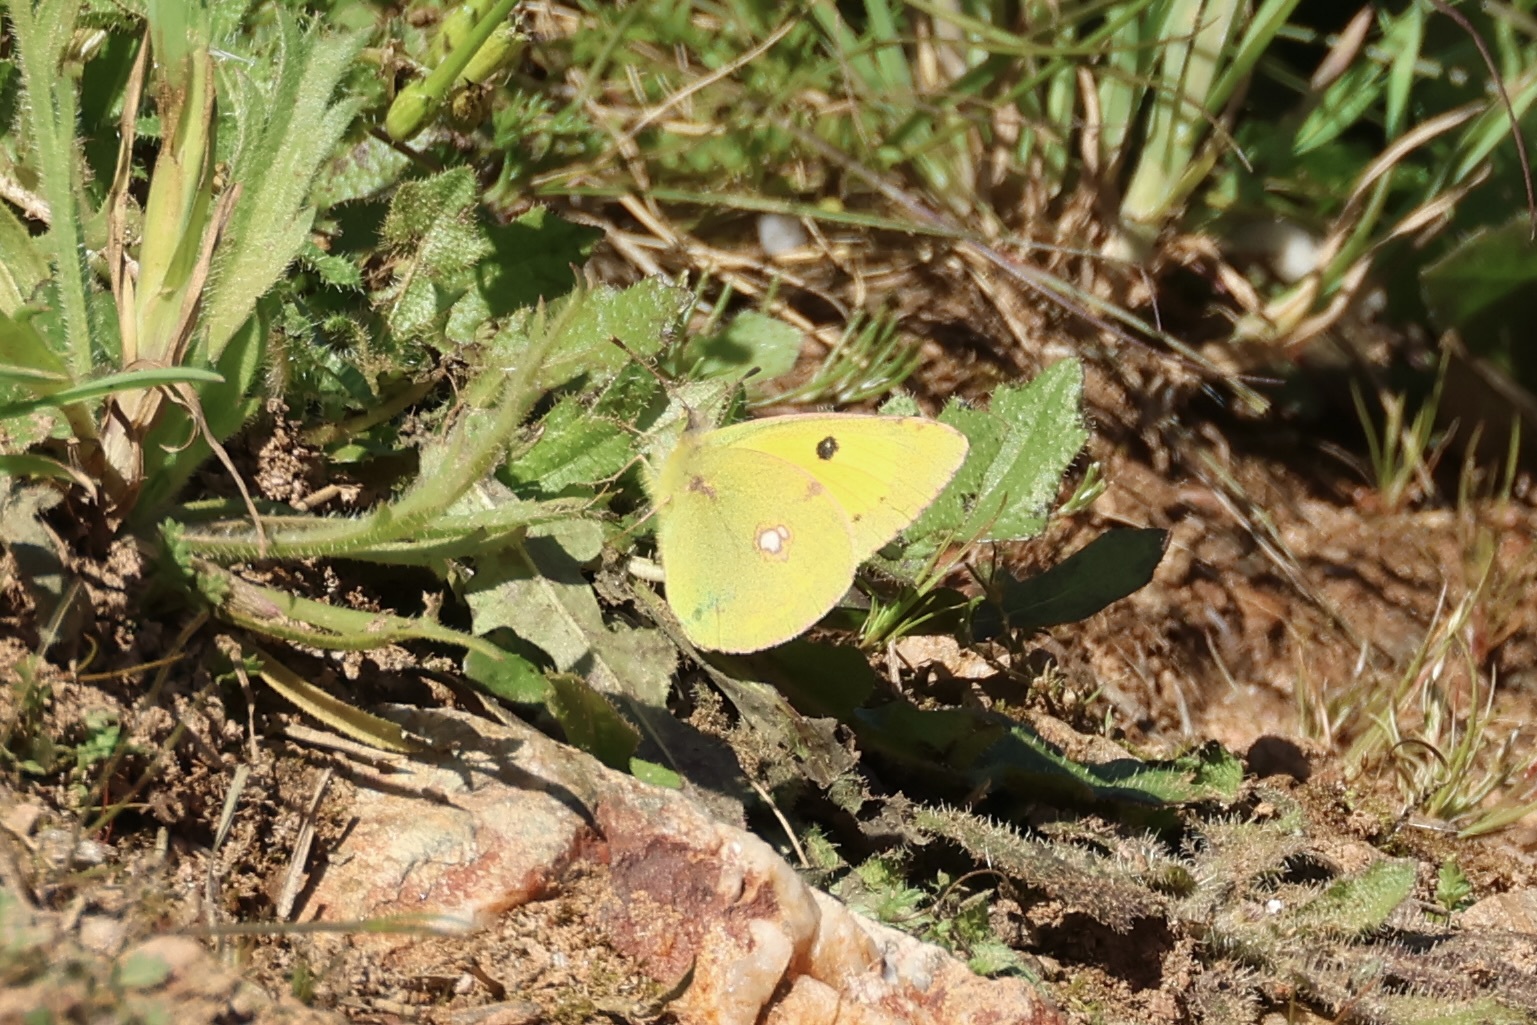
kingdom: Animalia
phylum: Arthropoda
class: Insecta
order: Lepidoptera
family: Pieridae
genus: Colias
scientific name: Colias croceus
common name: Clouded yellow
